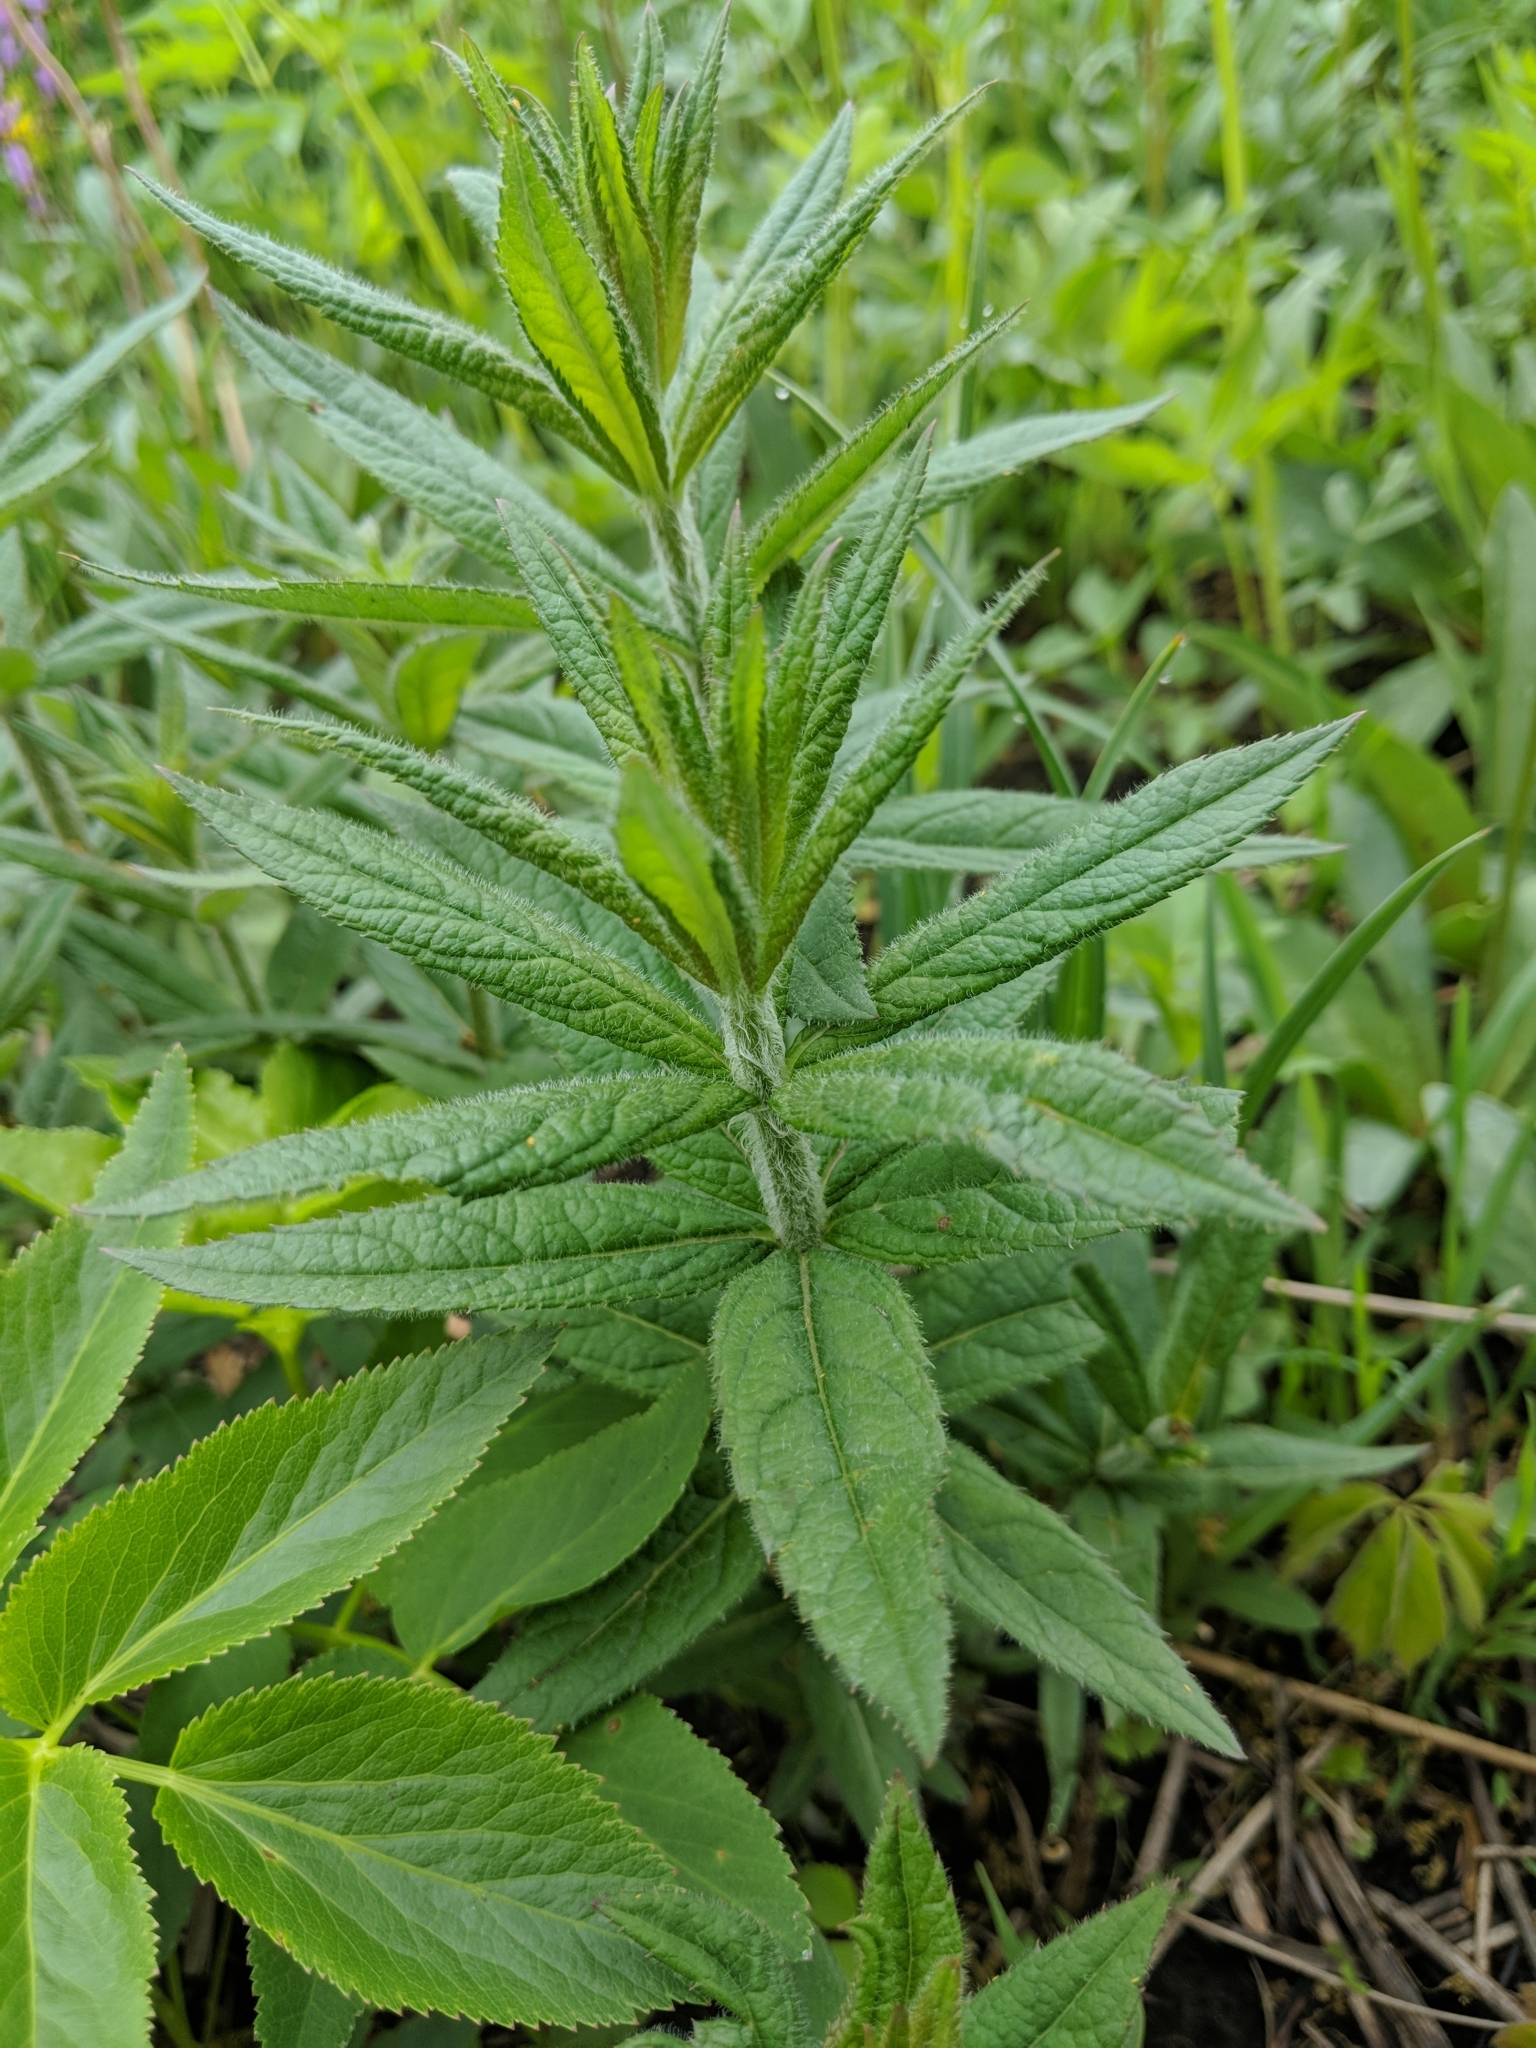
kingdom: Plantae
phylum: Tracheophyta
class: Magnoliopsida
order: Lamiales
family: Plantaginaceae
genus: Veronicastrum
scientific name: Veronicastrum virginicum
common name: Blackroot
